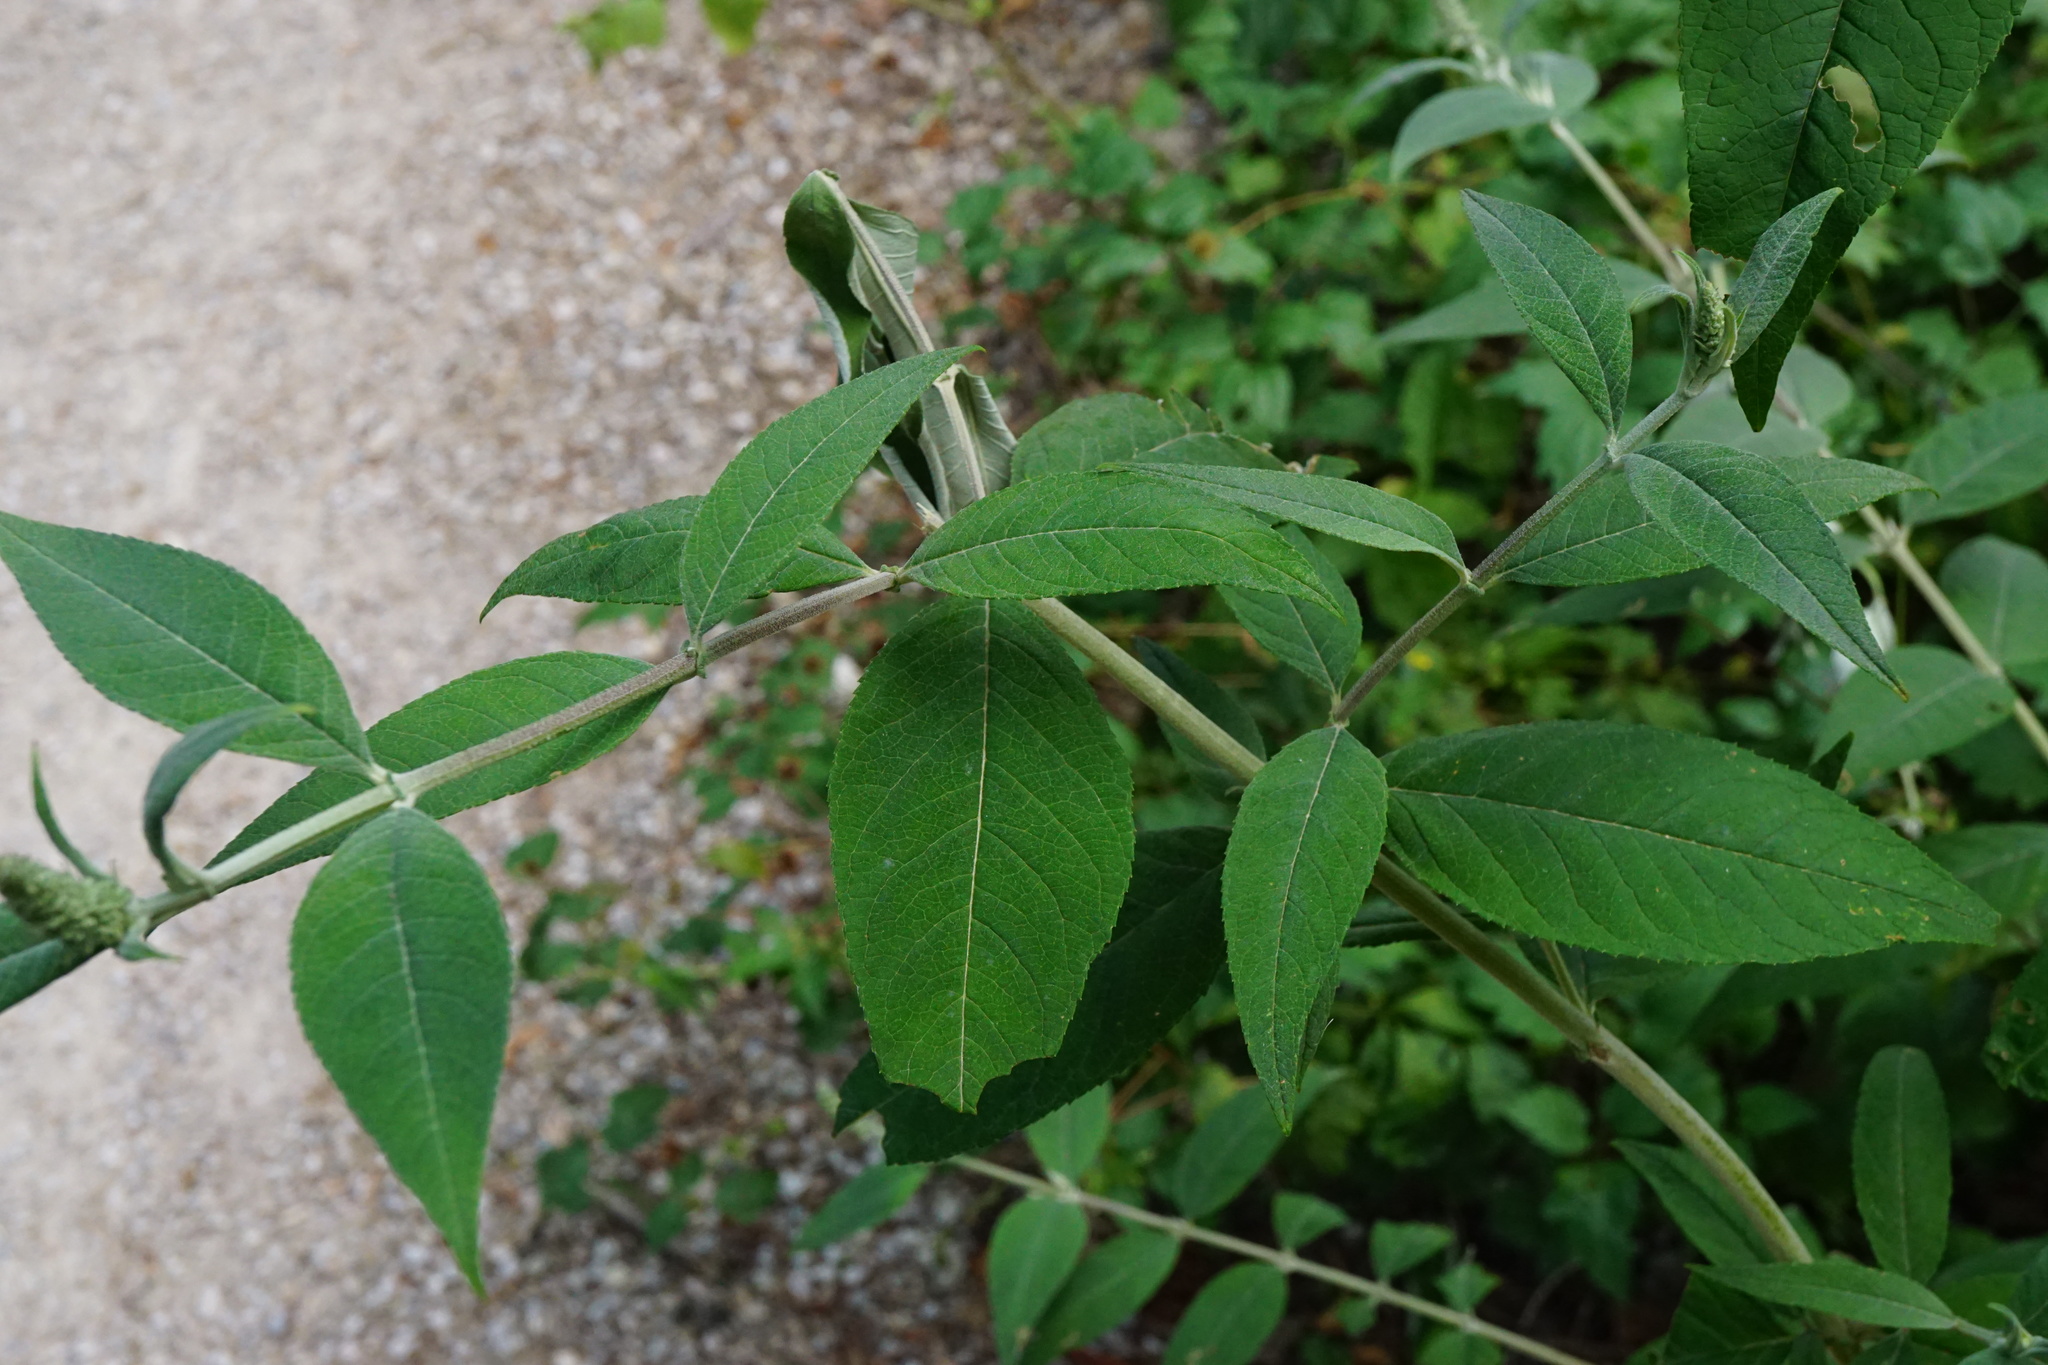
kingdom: Plantae
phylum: Tracheophyta
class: Magnoliopsida
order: Lamiales
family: Scrophulariaceae
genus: Buddleja
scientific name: Buddleja davidii
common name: Butterfly-bush
